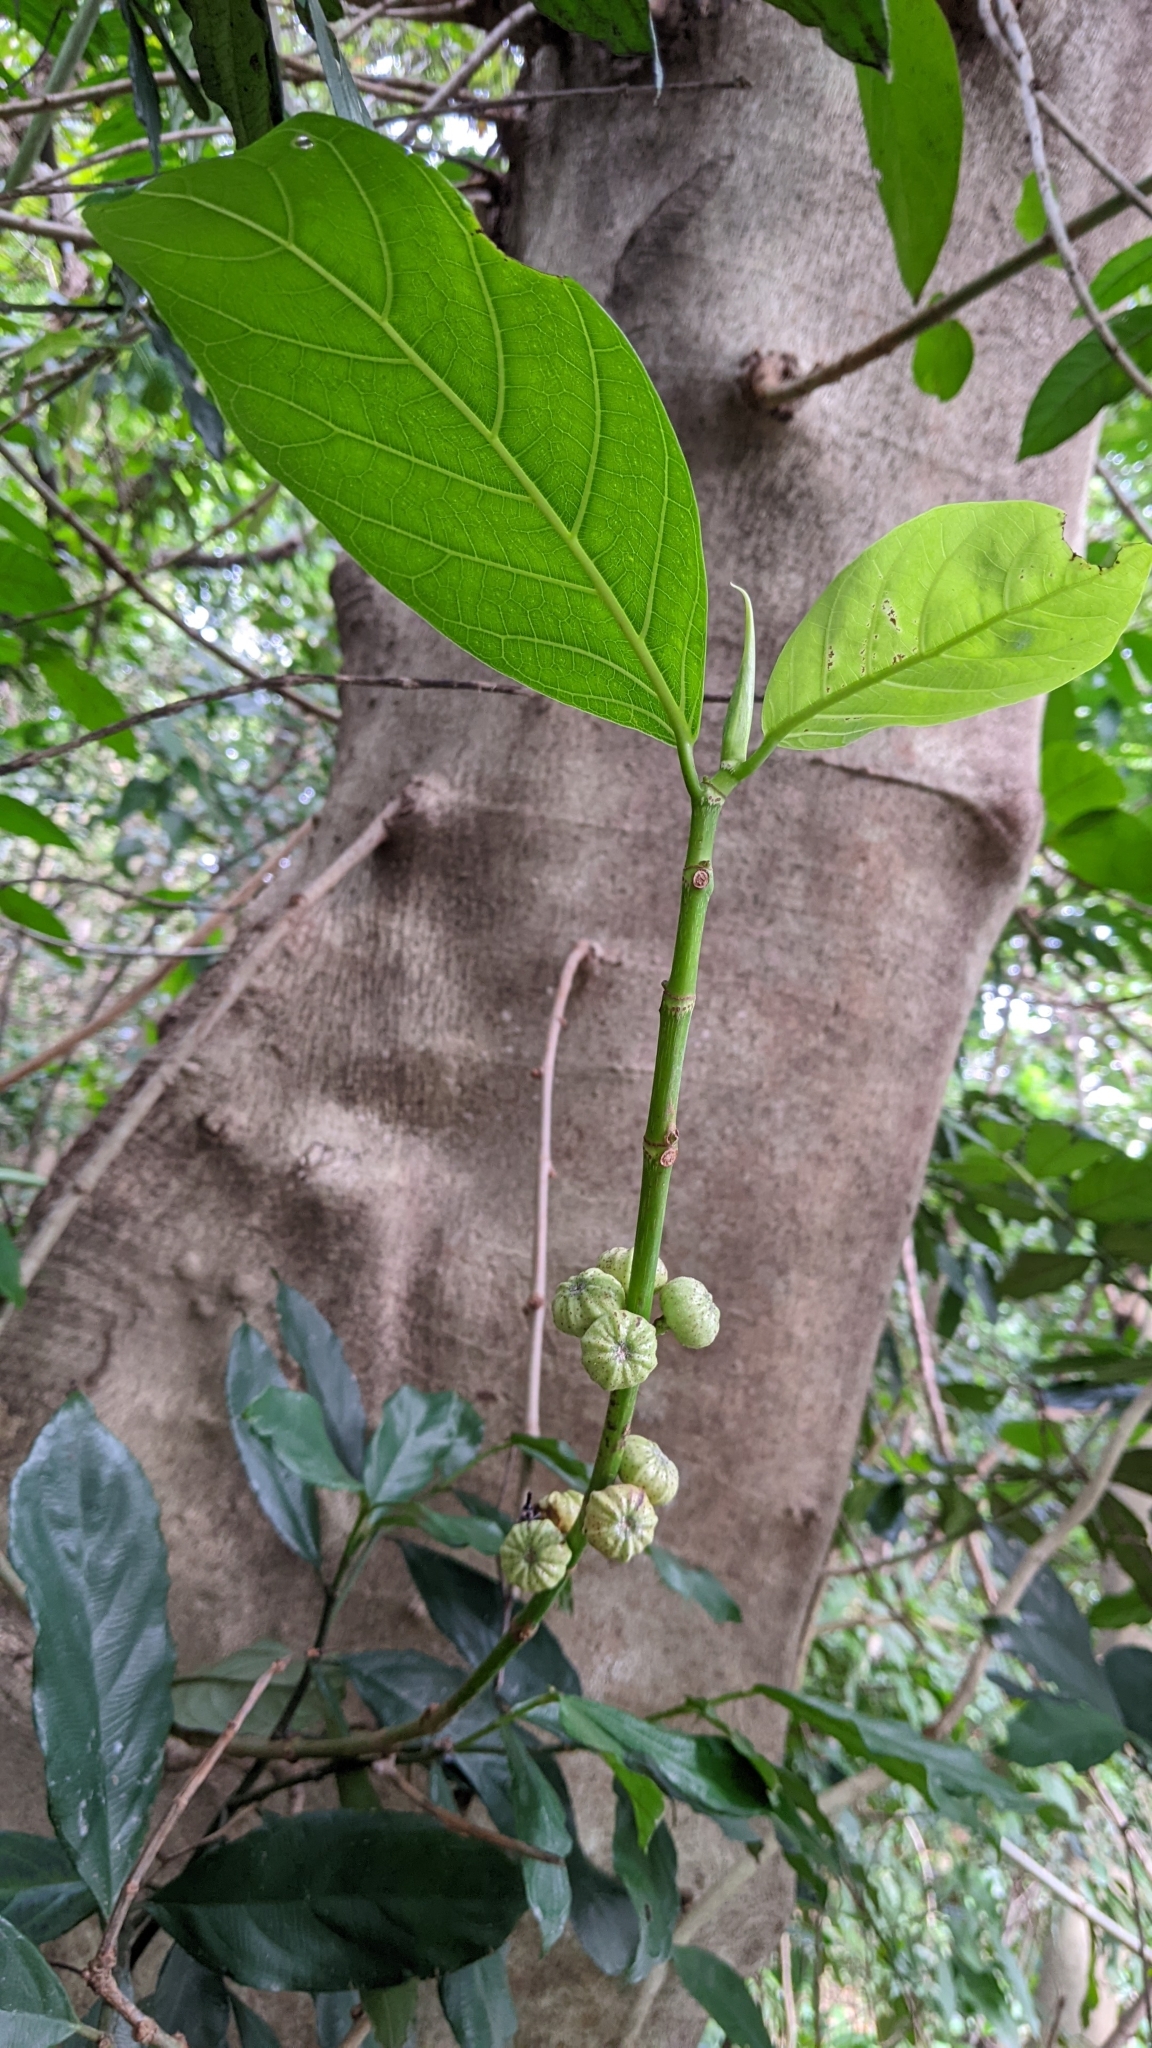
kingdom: Plantae
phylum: Tracheophyta
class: Magnoliopsida
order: Rosales
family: Moraceae
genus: Ficus
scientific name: Ficus septica
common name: Septic fig
